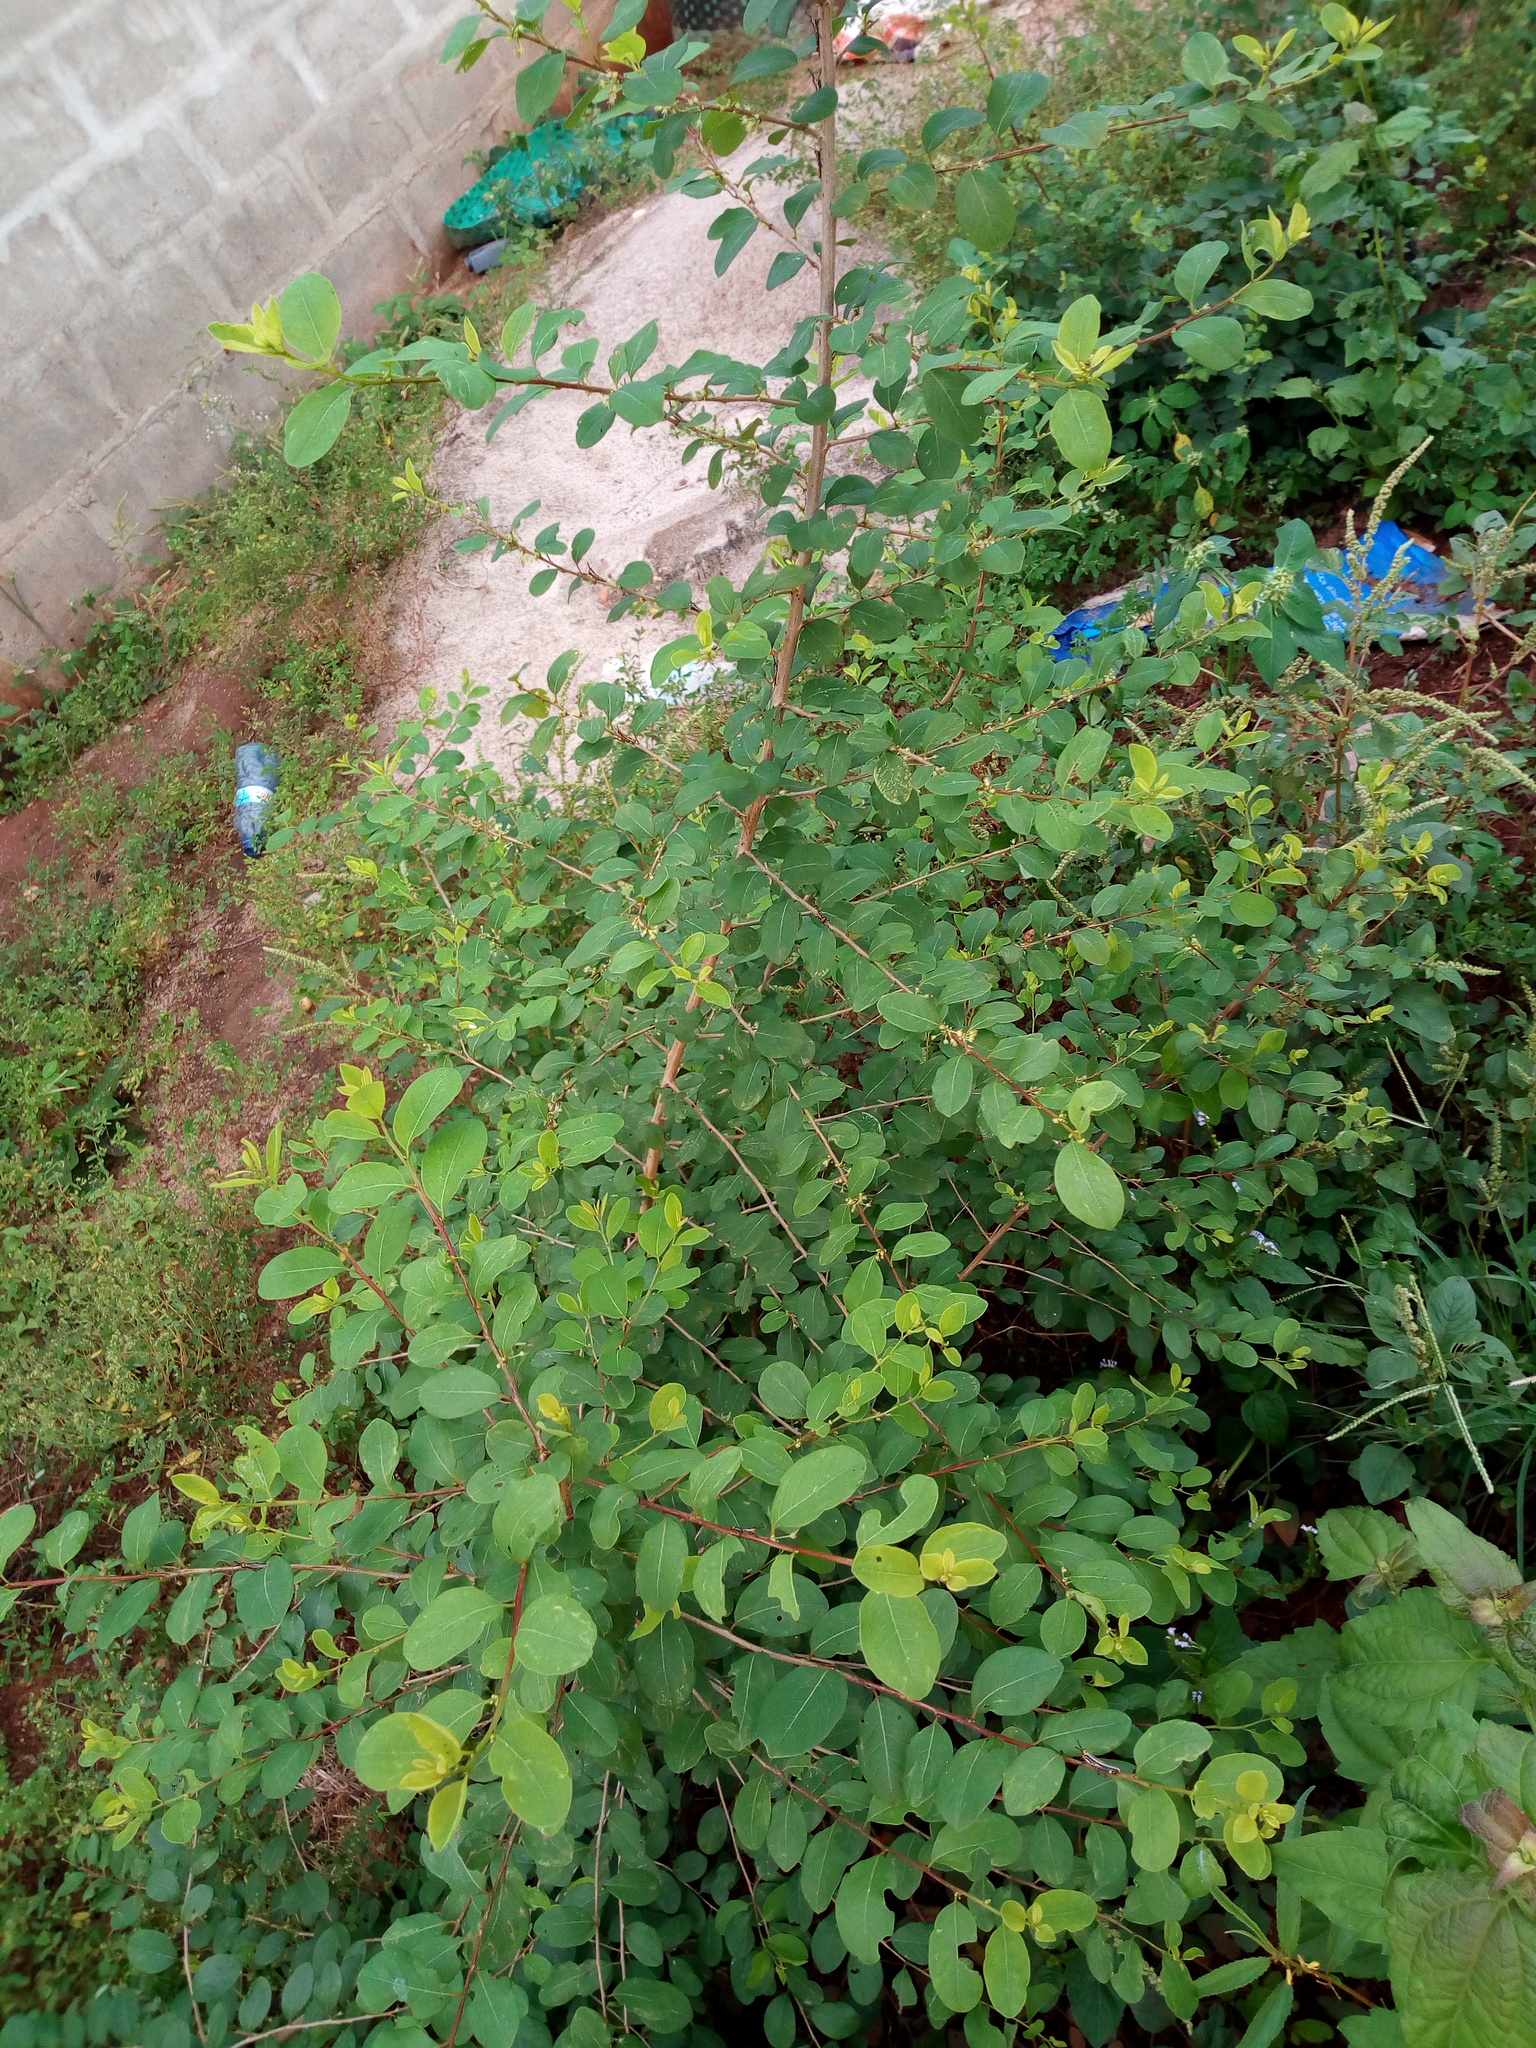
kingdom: Plantae
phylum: Tracheophyta
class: Magnoliopsida
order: Malpighiales
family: Phyllanthaceae
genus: Flueggea
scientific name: Flueggea virosa
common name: Common bushweed
